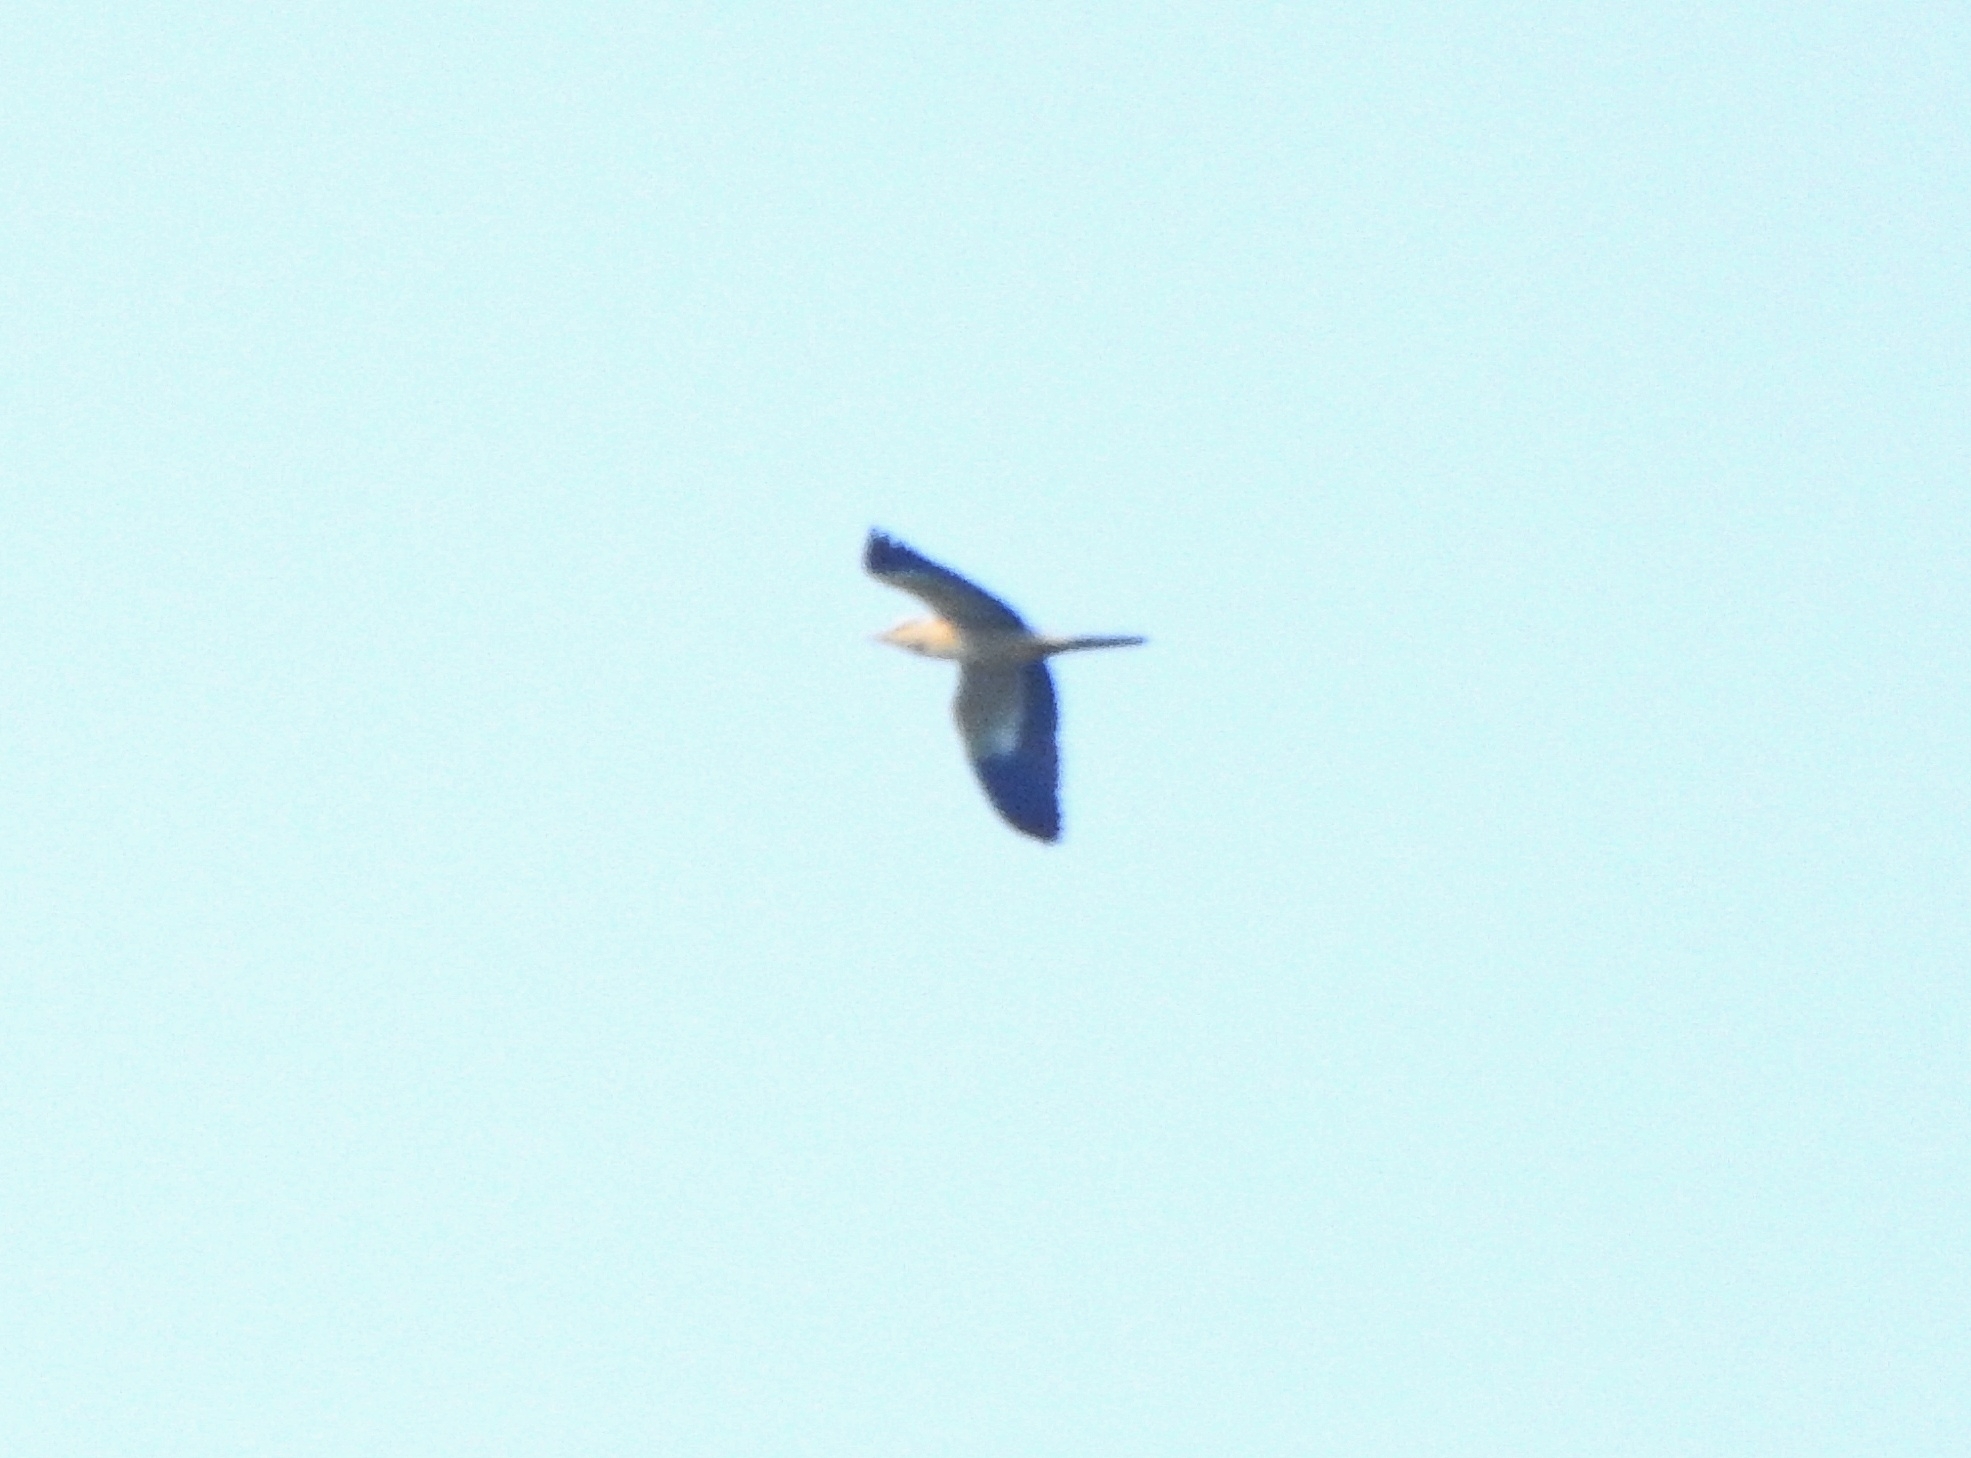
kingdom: Animalia
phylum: Chordata
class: Aves
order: Coraciiformes
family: Coraciidae
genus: Coracias
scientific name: Coracias garrulus
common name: European roller
